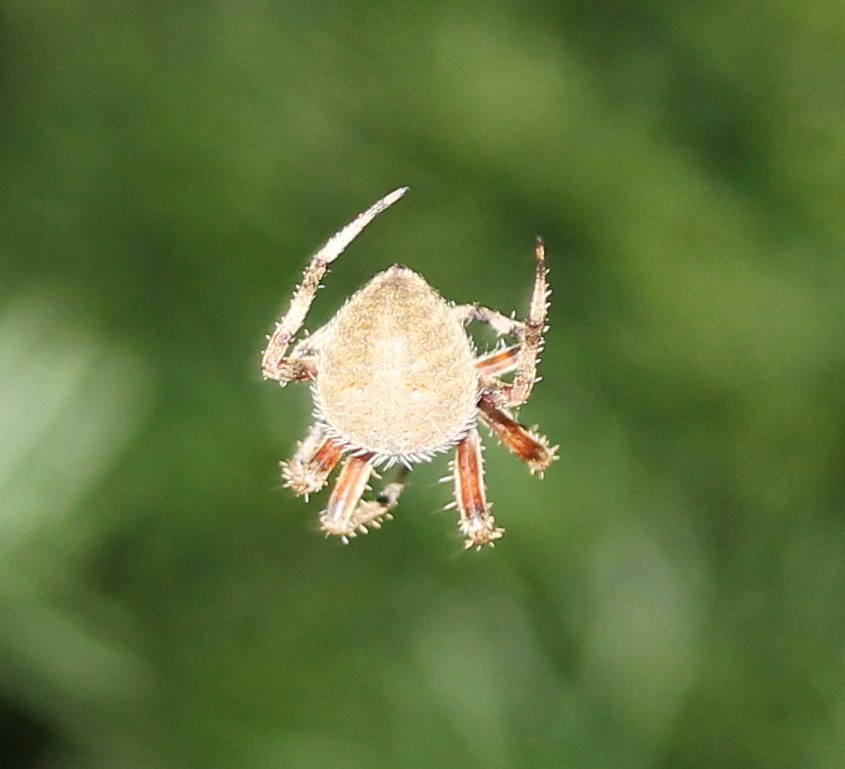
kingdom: Animalia
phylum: Arthropoda
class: Arachnida
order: Araneae
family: Araneidae
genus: Neoscona
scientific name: Neoscona crucifera
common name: Spotted orbweaver
